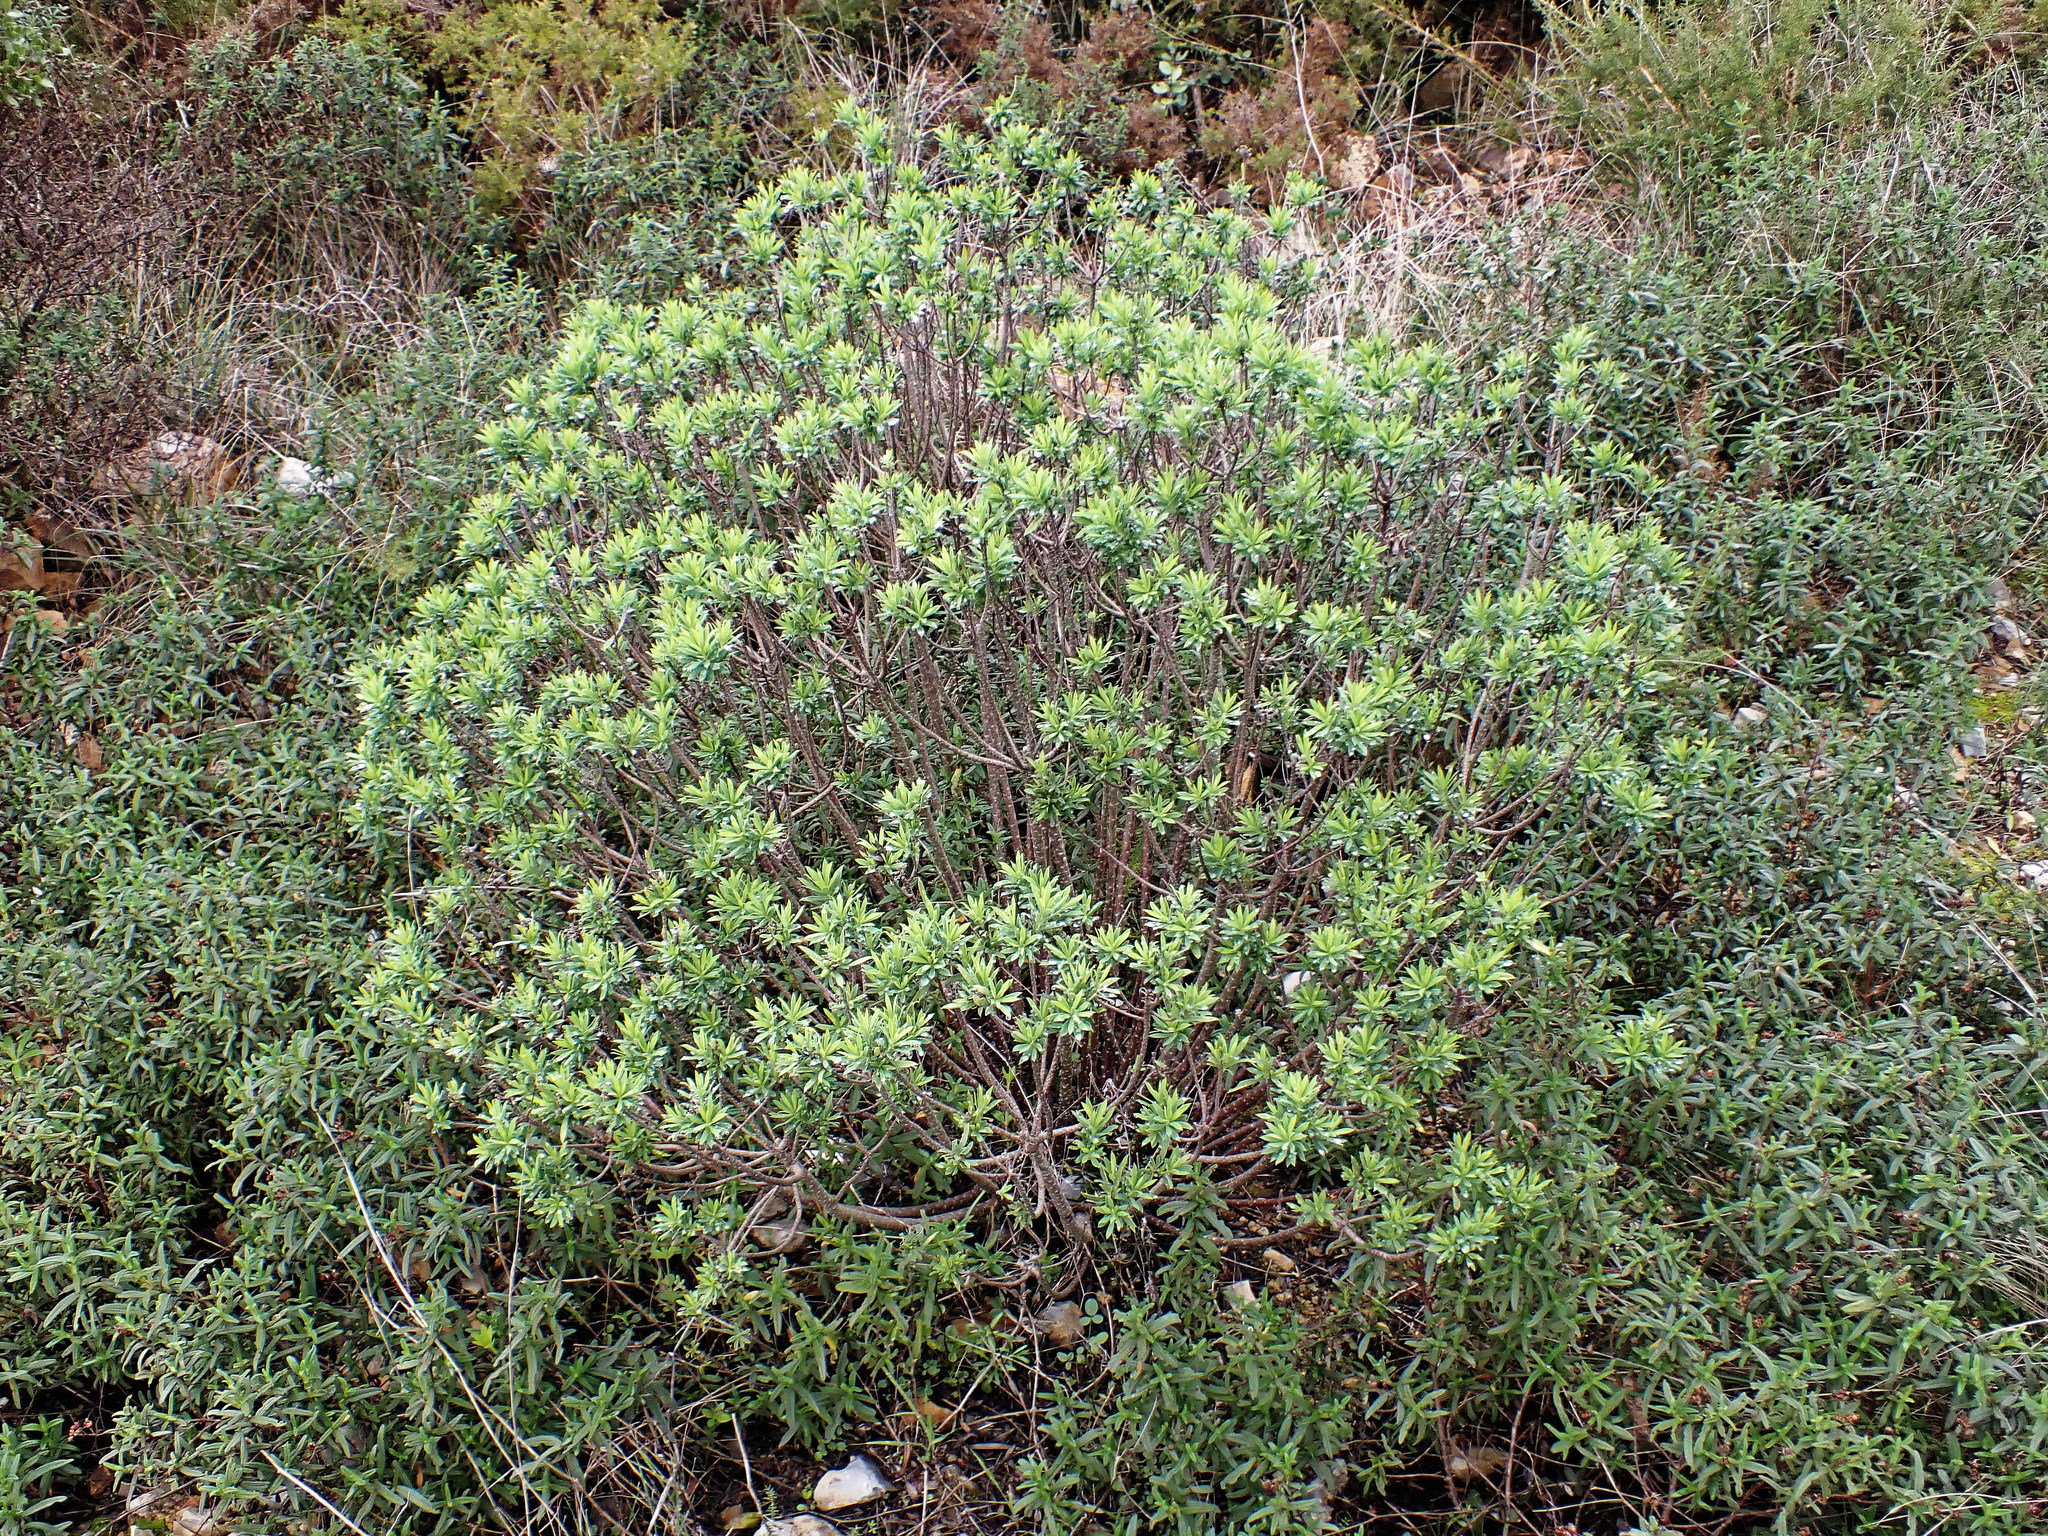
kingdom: Plantae
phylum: Tracheophyta
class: Magnoliopsida
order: Malvales
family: Thymelaeaceae
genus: Daphne
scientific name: Daphne gnidium
